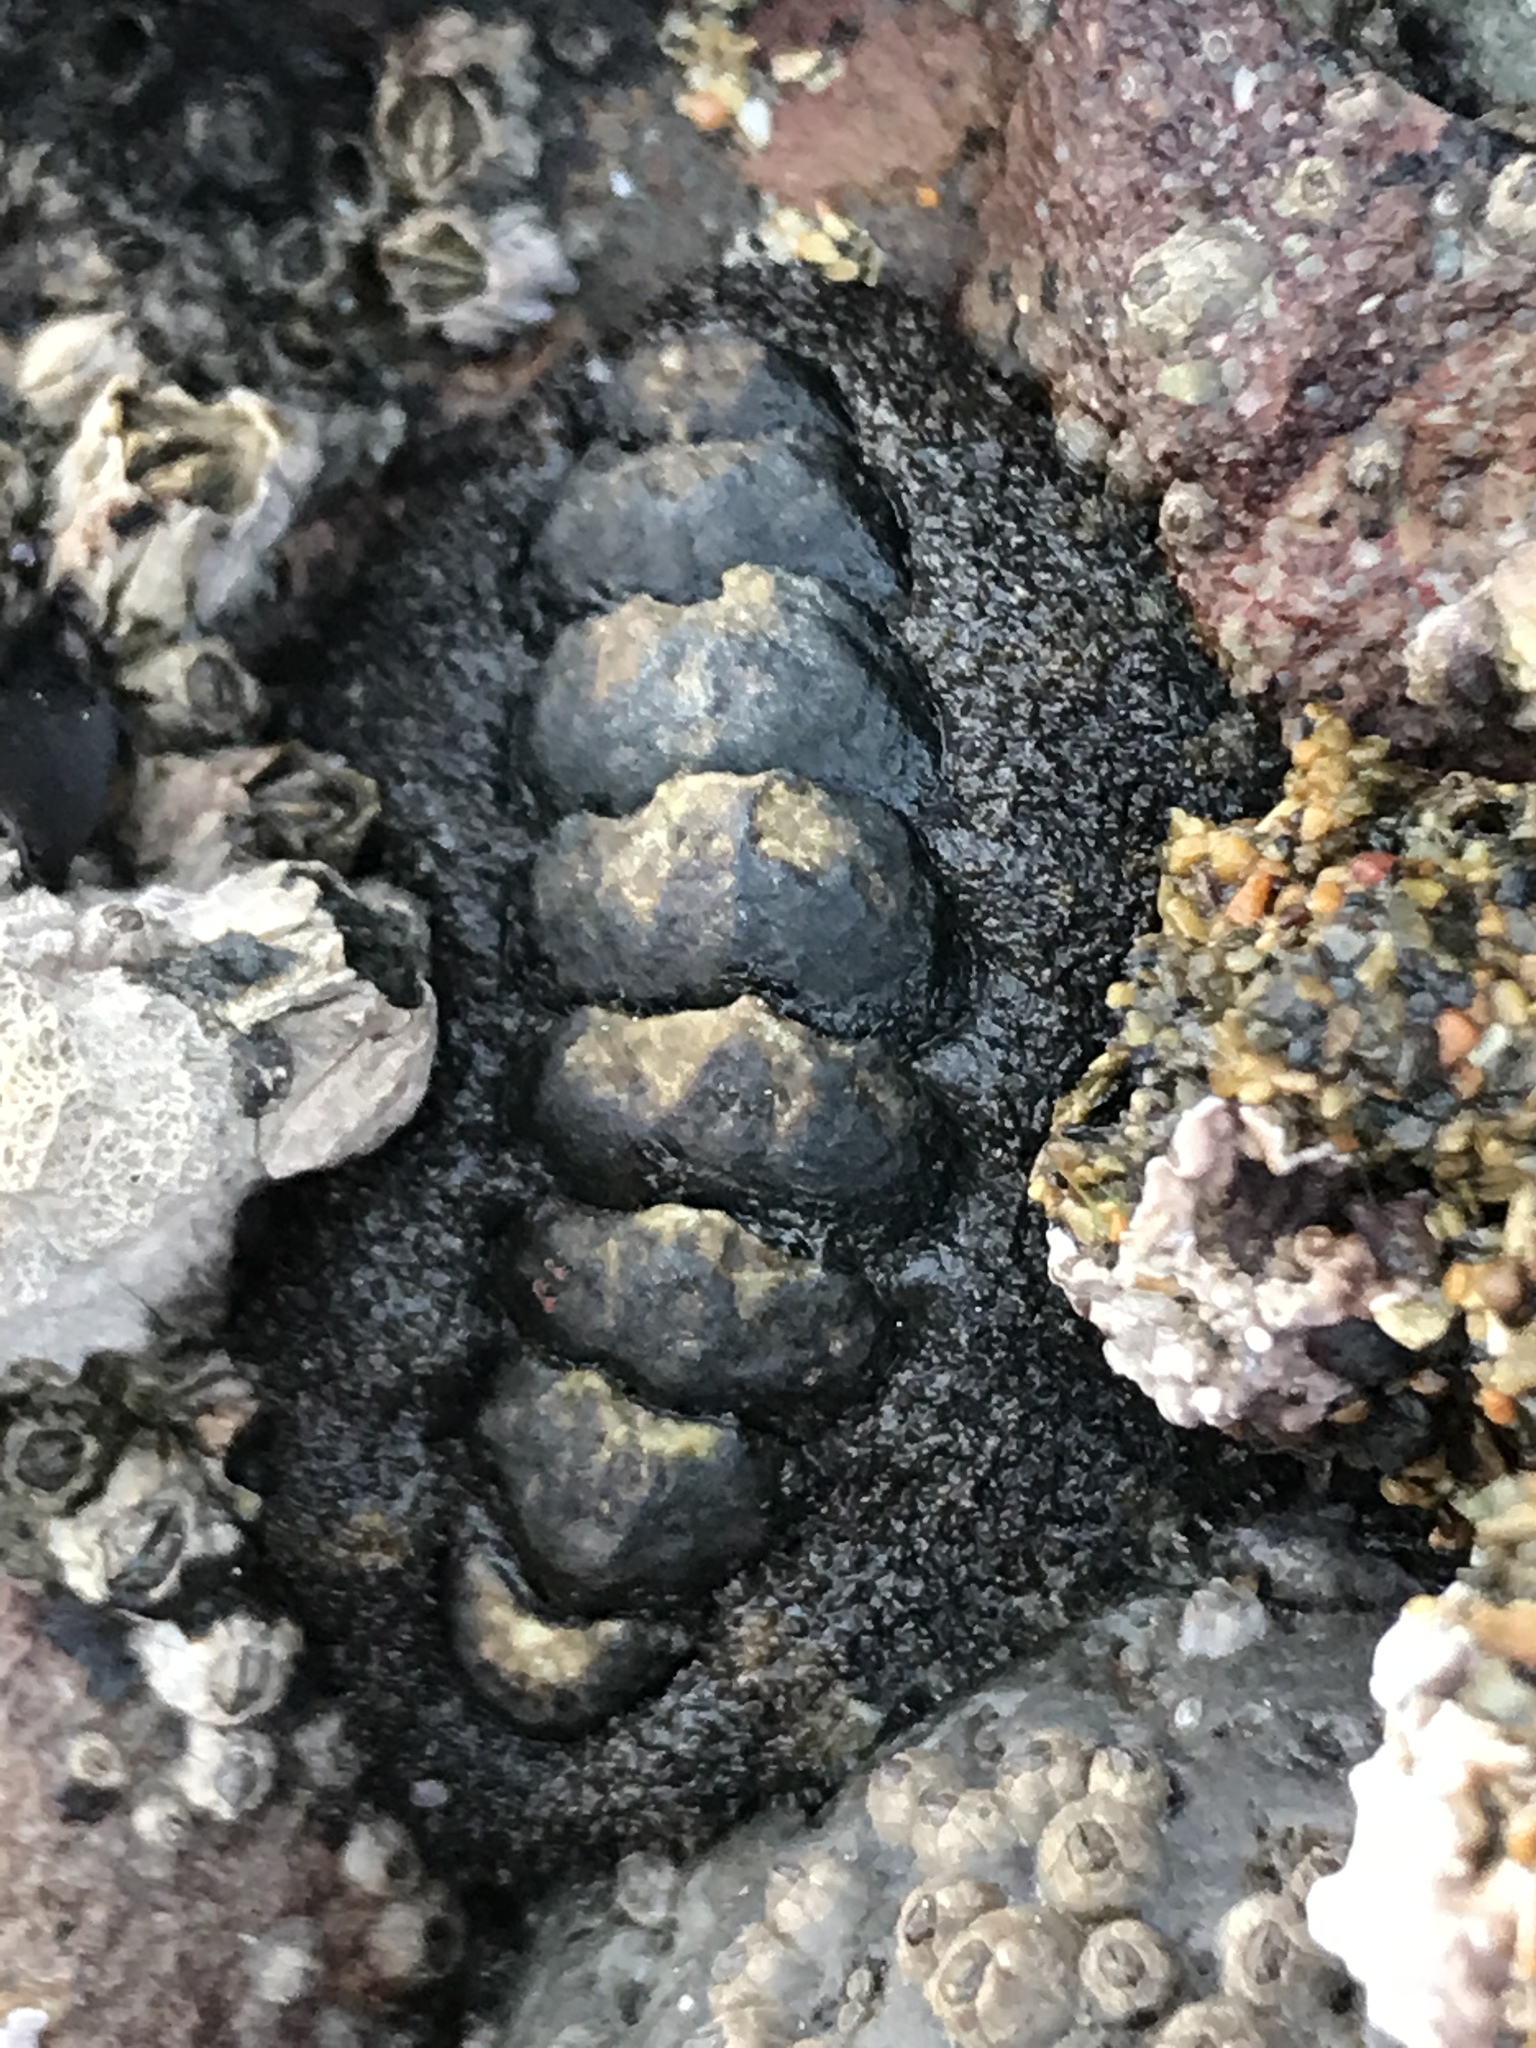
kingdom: Animalia
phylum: Mollusca
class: Polyplacophora
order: Chitonida
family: Tonicellidae
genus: Nuttallina
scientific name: Nuttallina californica
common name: California nuttall chiton
